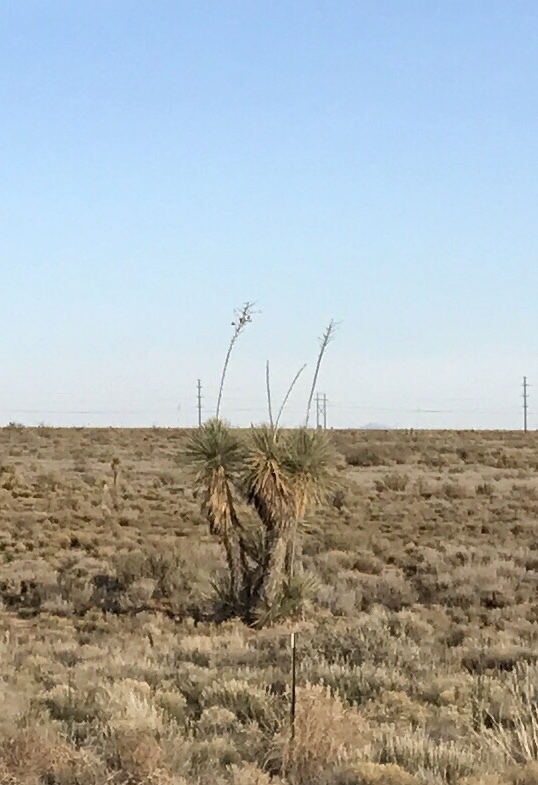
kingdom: Plantae
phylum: Tracheophyta
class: Liliopsida
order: Asparagales
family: Asparagaceae
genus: Yucca
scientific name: Yucca elata
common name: Palmella
